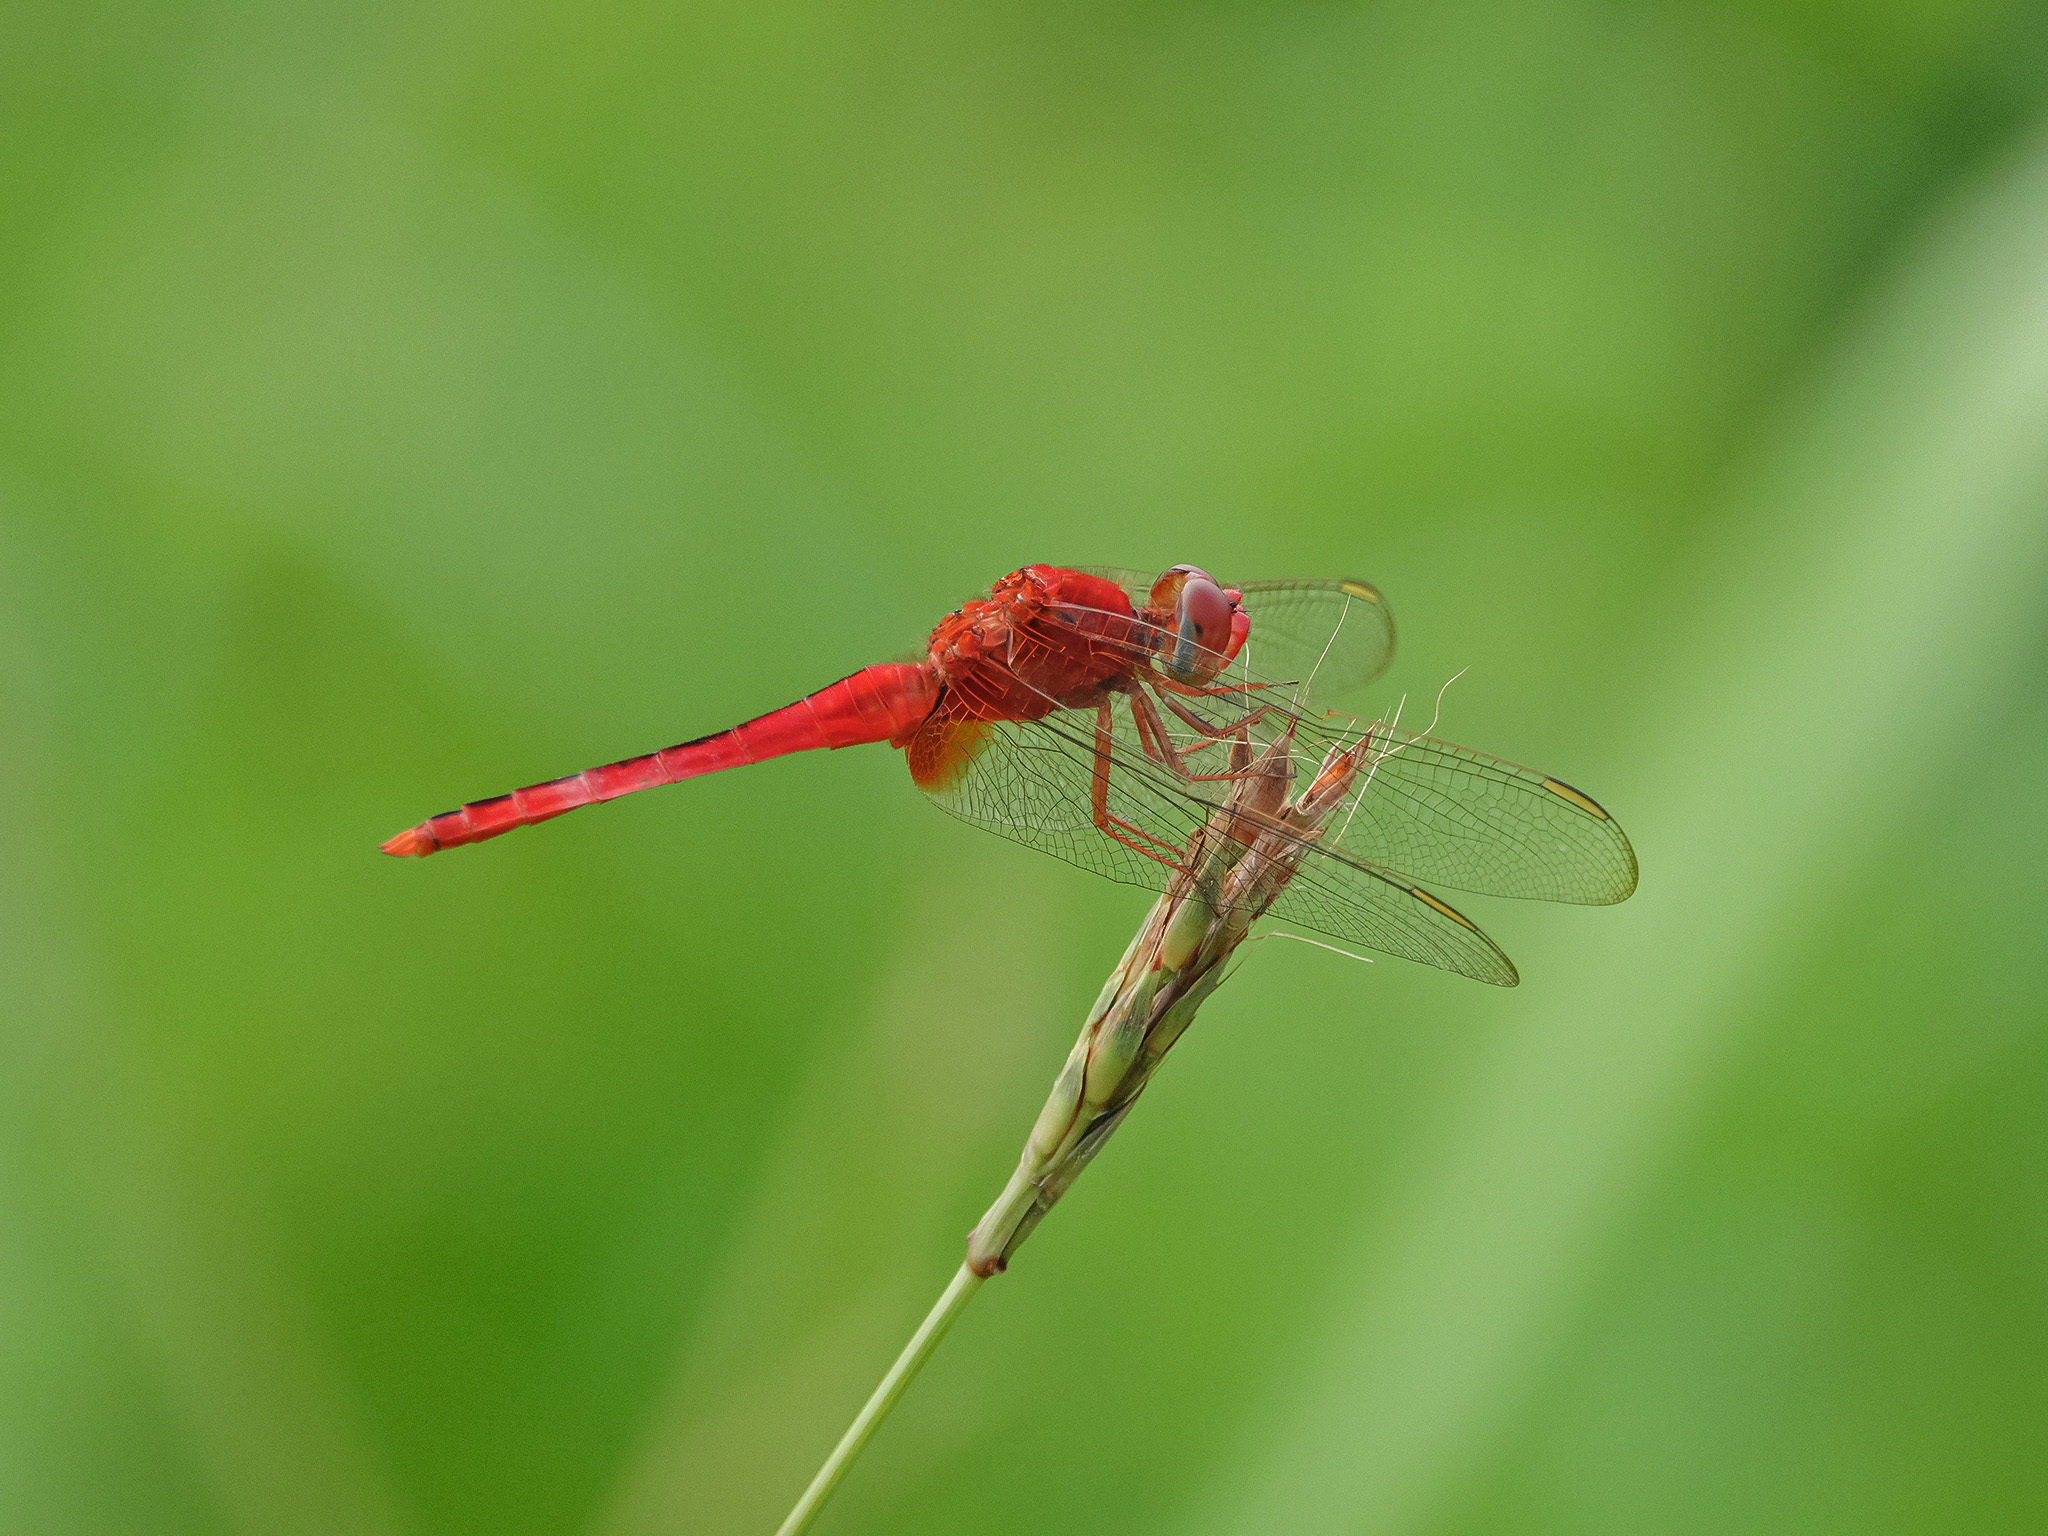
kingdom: Animalia
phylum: Arthropoda
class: Insecta
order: Odonata
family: Libellulidae
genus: Crocothemis
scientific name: Crocothemis servilia
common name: Scarlet skimmer
